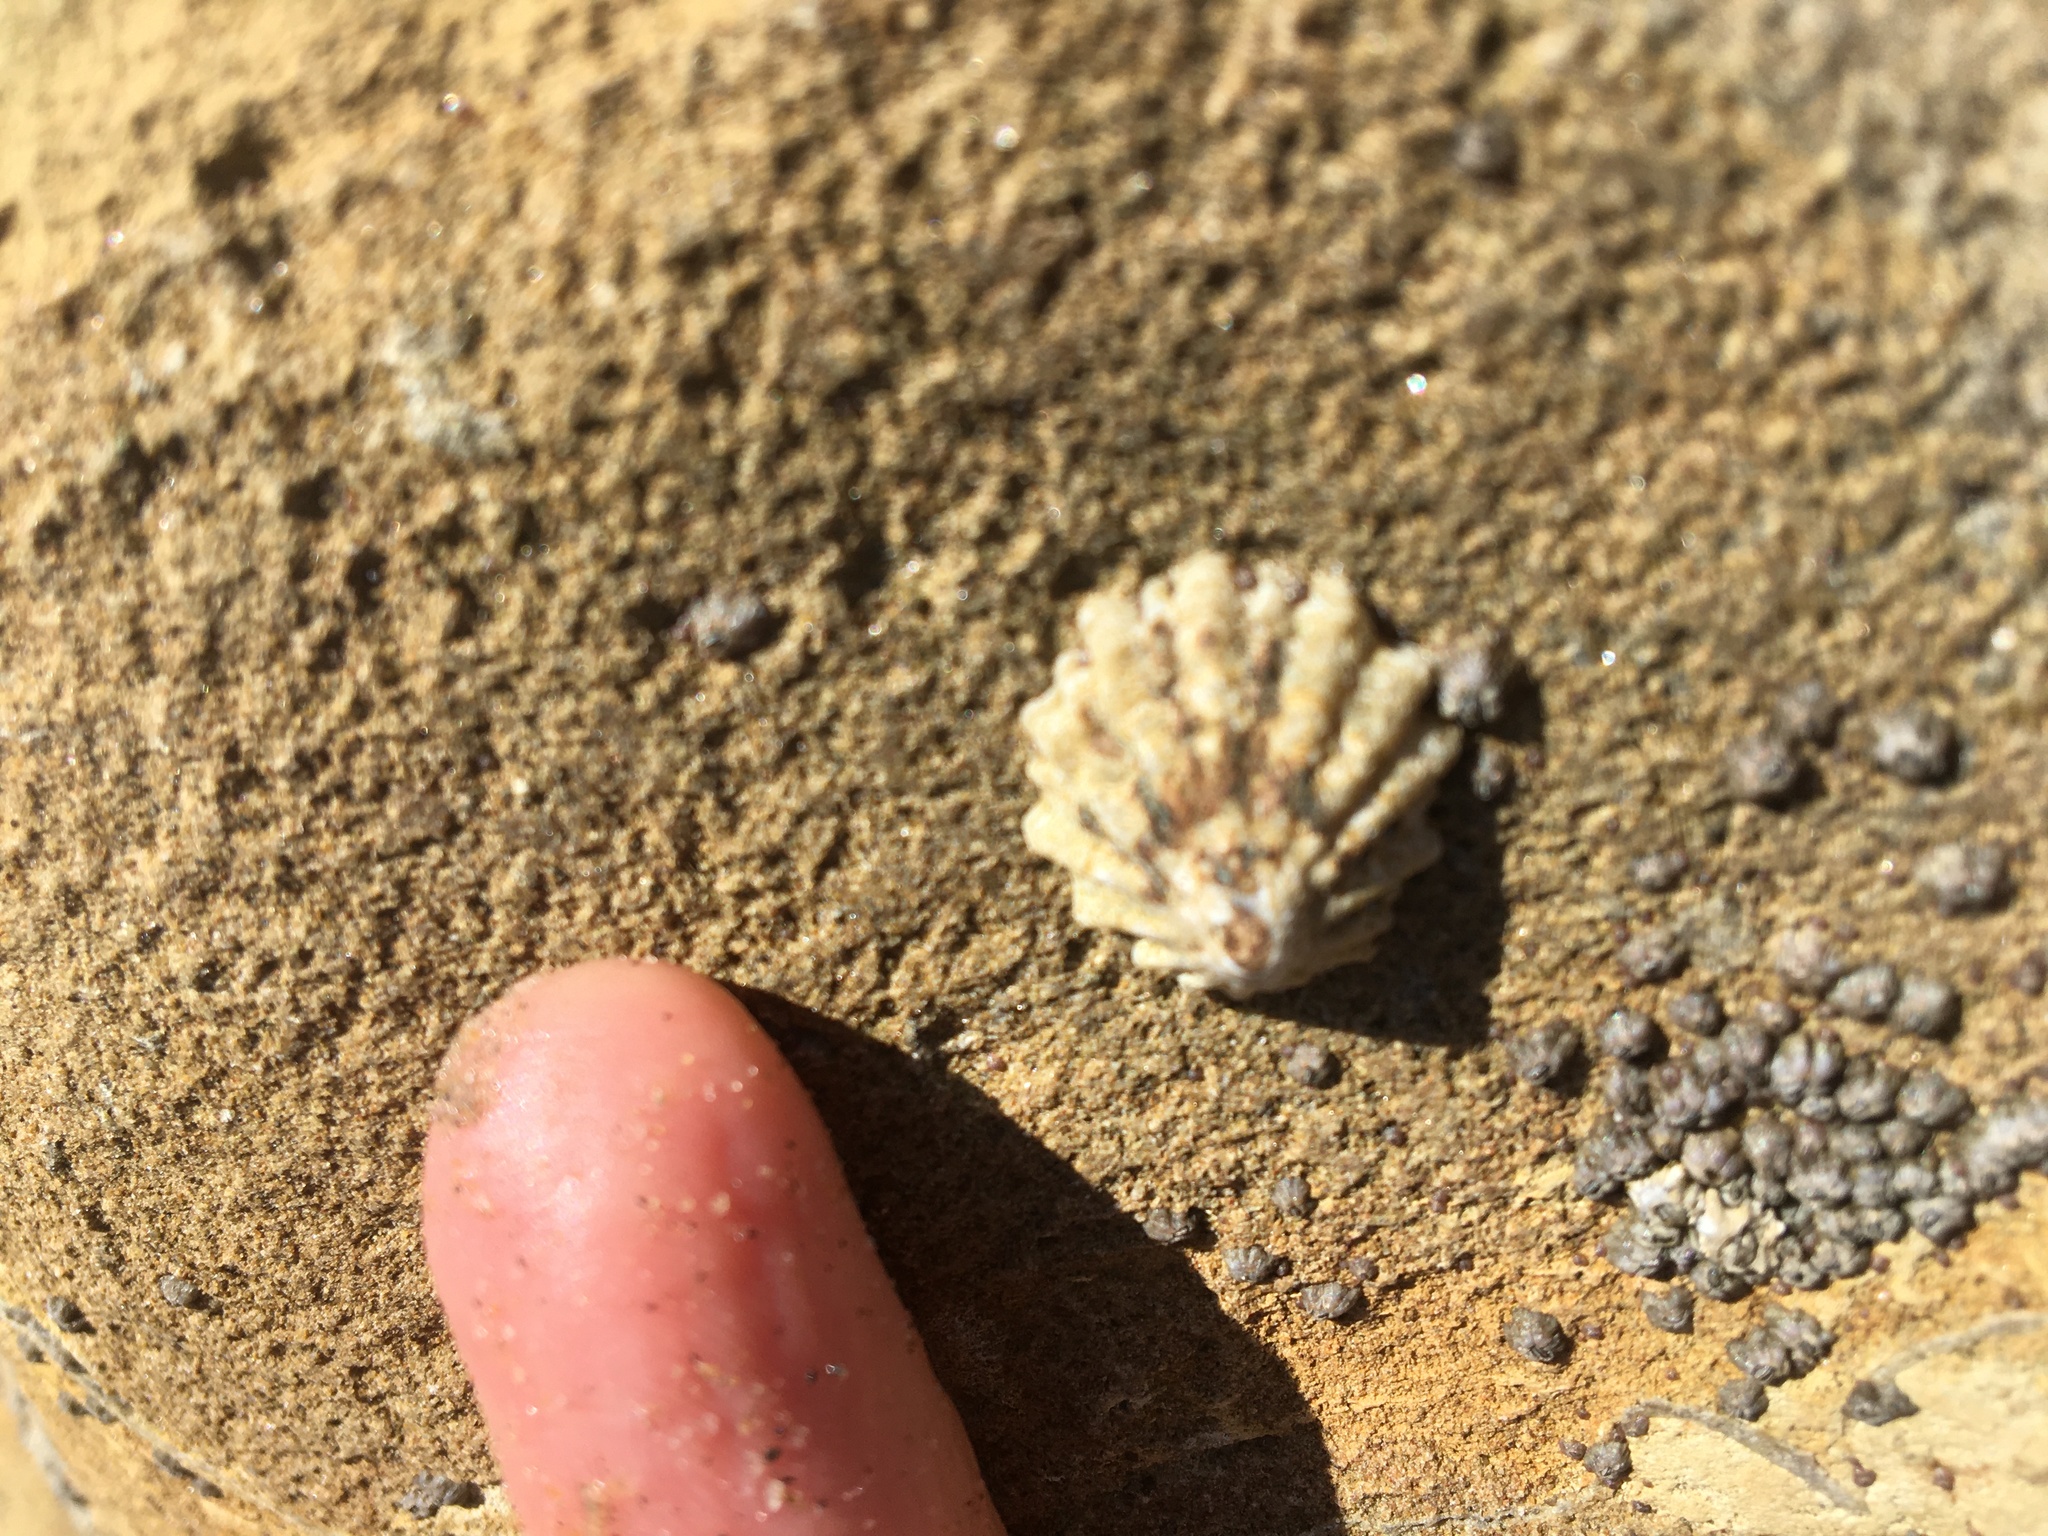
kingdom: Animalia
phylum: Mollusca
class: Gastropoda
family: Lottiidae
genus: Lottia
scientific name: Lottia scabra
